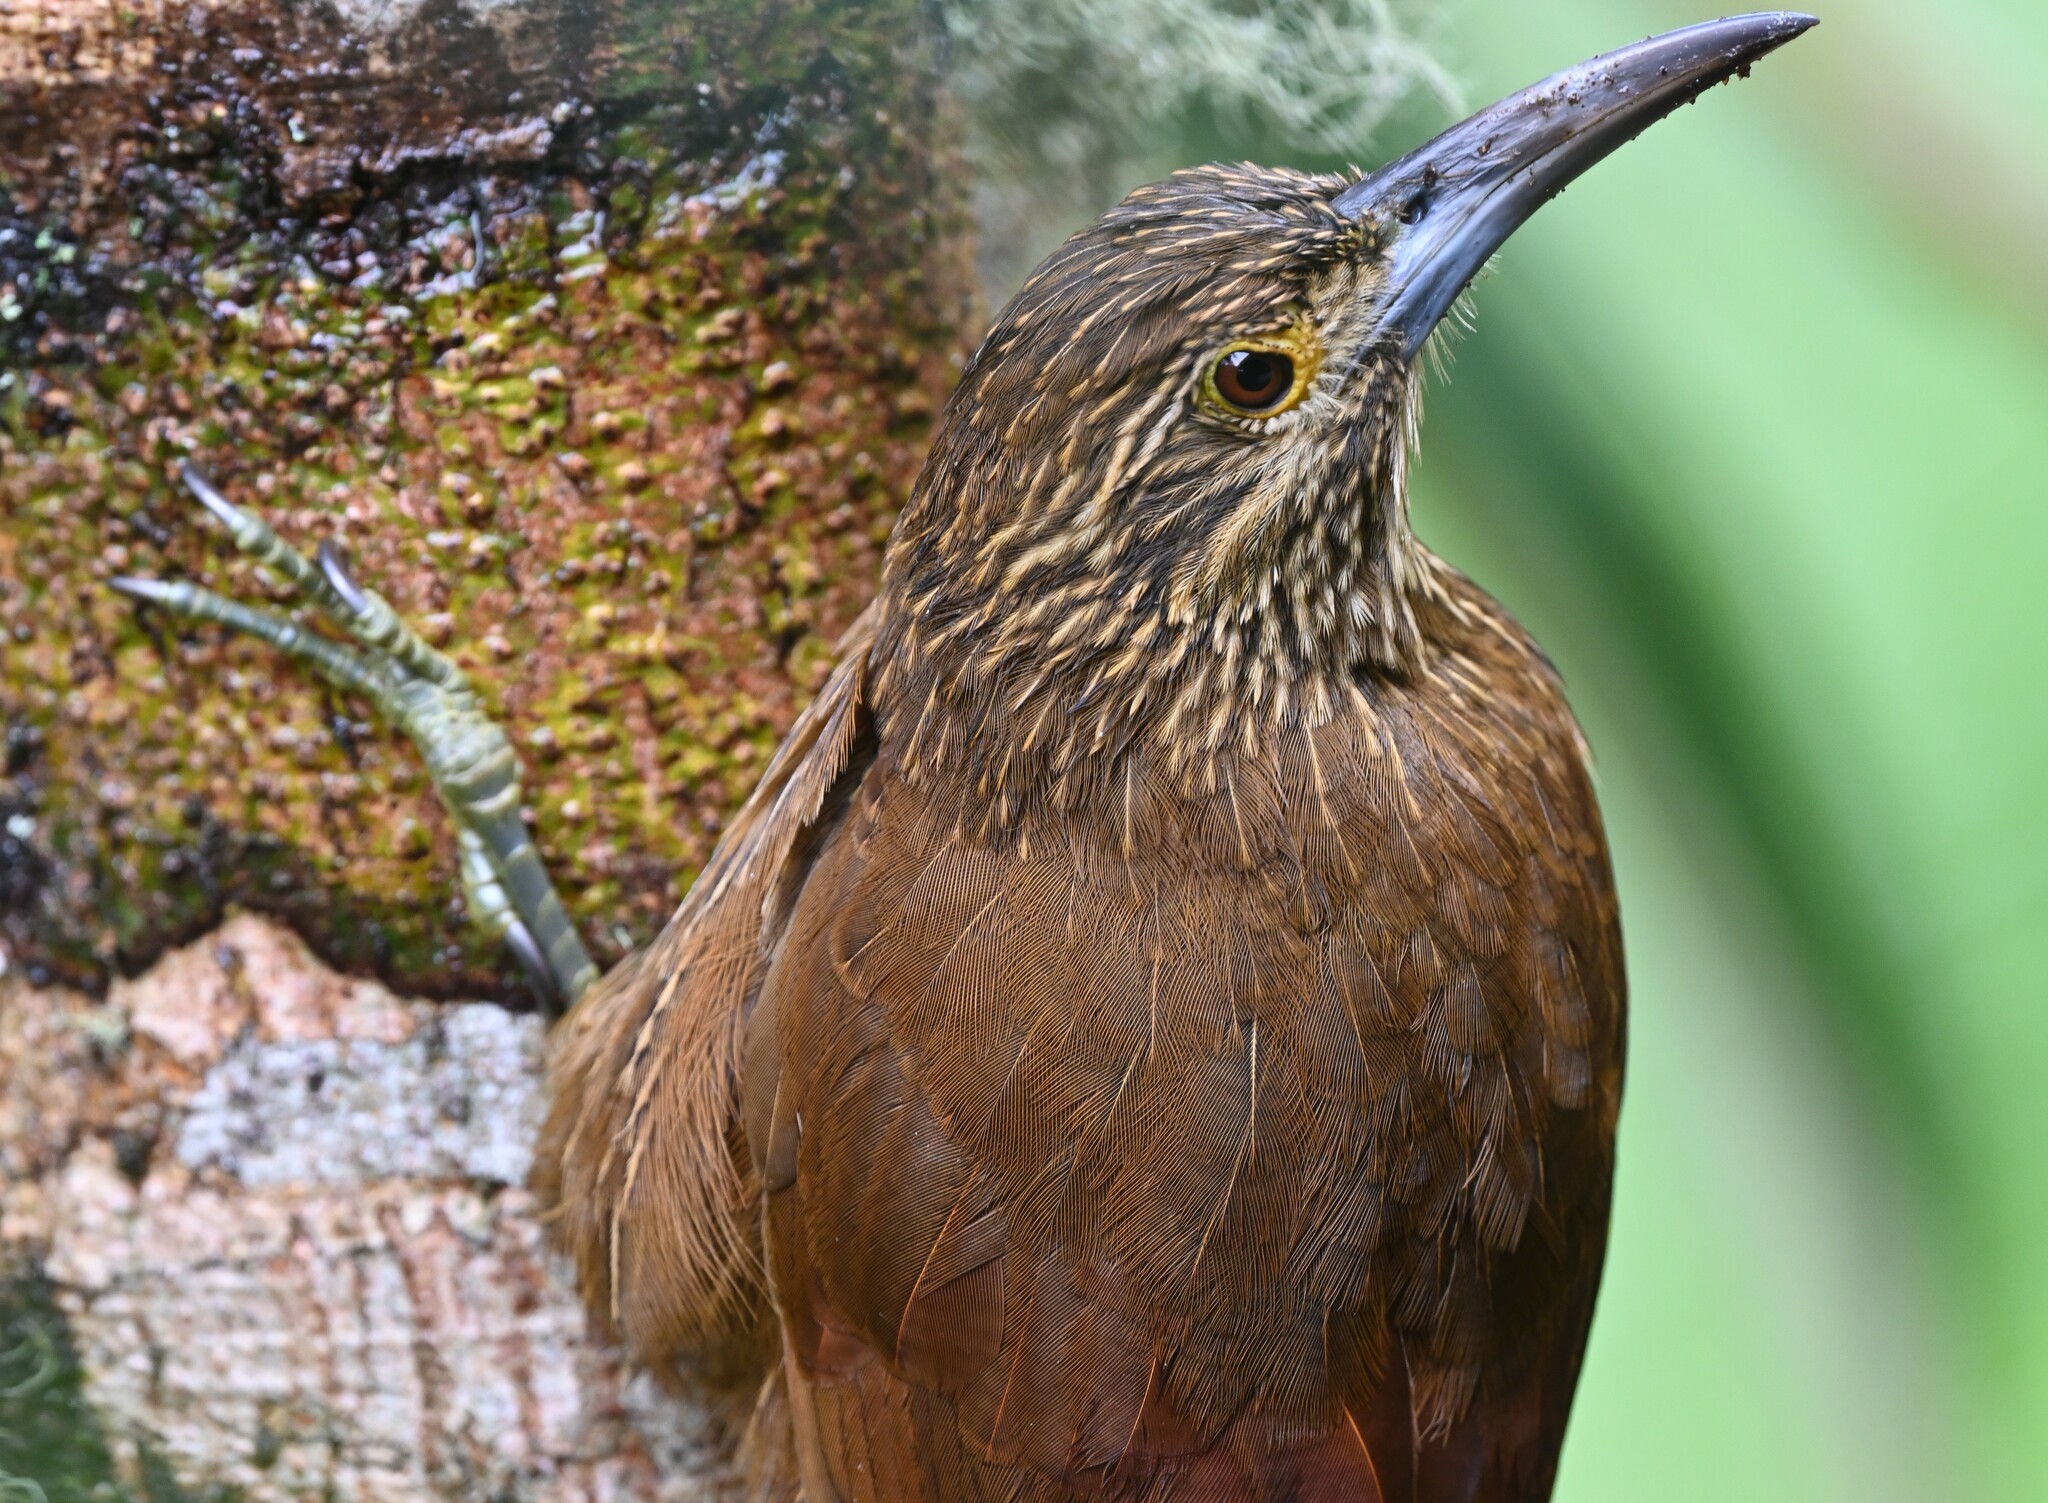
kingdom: Animalia
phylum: Chordata
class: Aves
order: Passeriformes
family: Furnariidae
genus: Xiphocolaptes
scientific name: Xiphocolaptes promeropirhynchus
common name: Strong-billed woodcreeper
